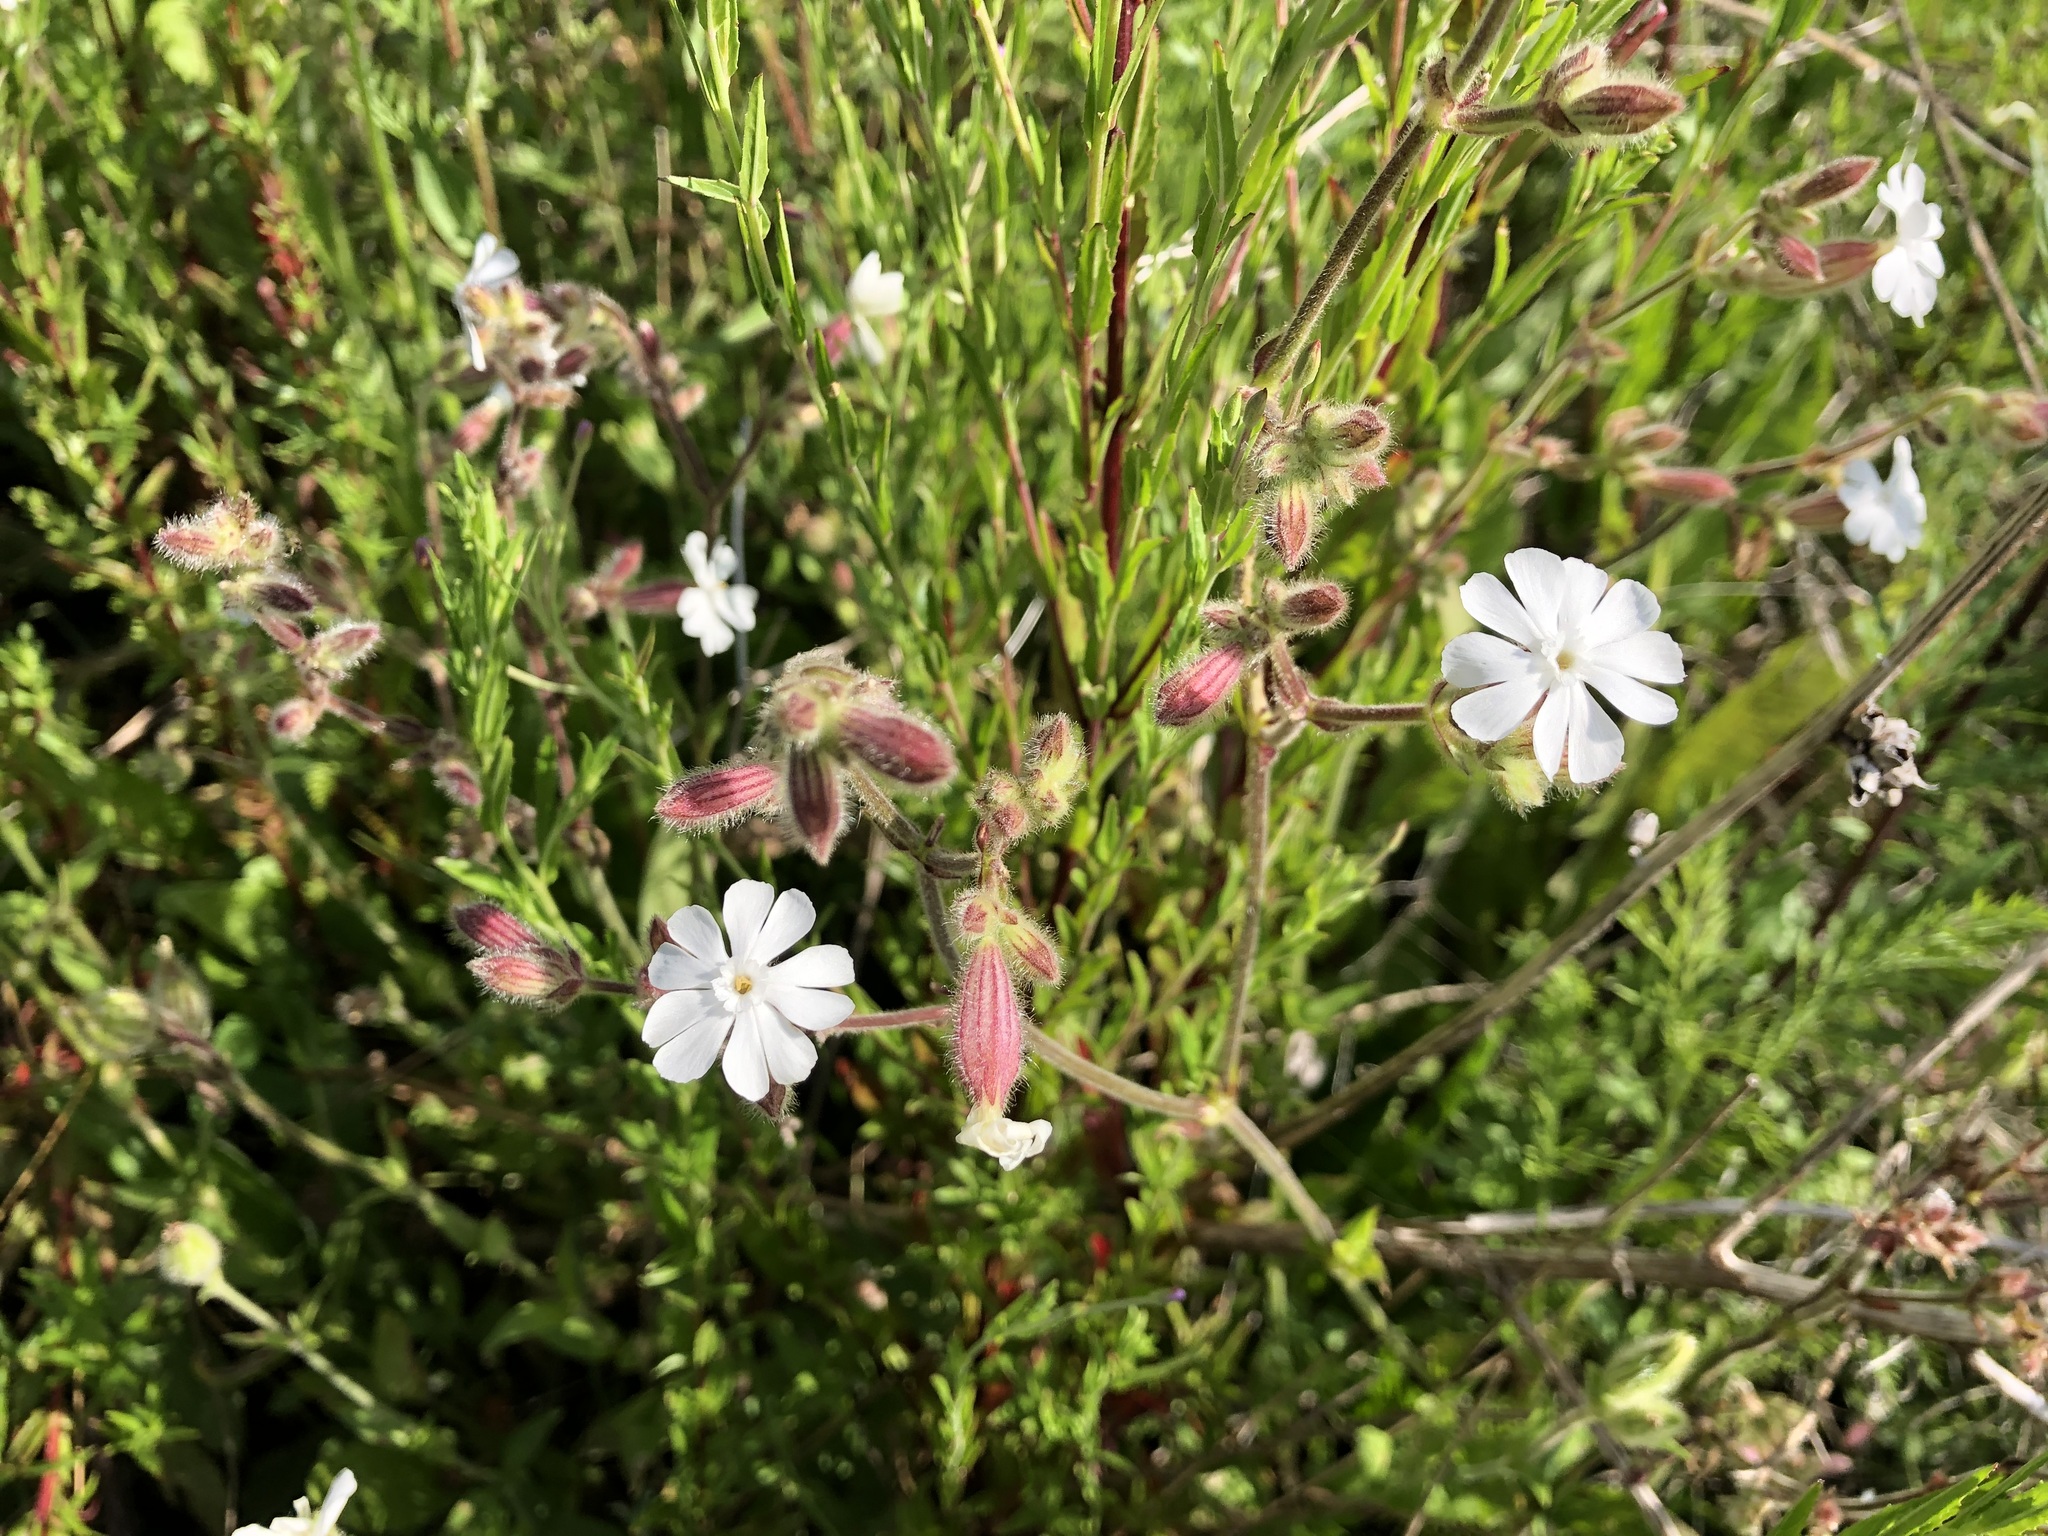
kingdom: Plantae
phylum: Tracheophyta
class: Magnoliopsida
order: Caryophyllales
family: Caryophyllaceae
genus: Silene
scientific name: Silene latifolia
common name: White campion
